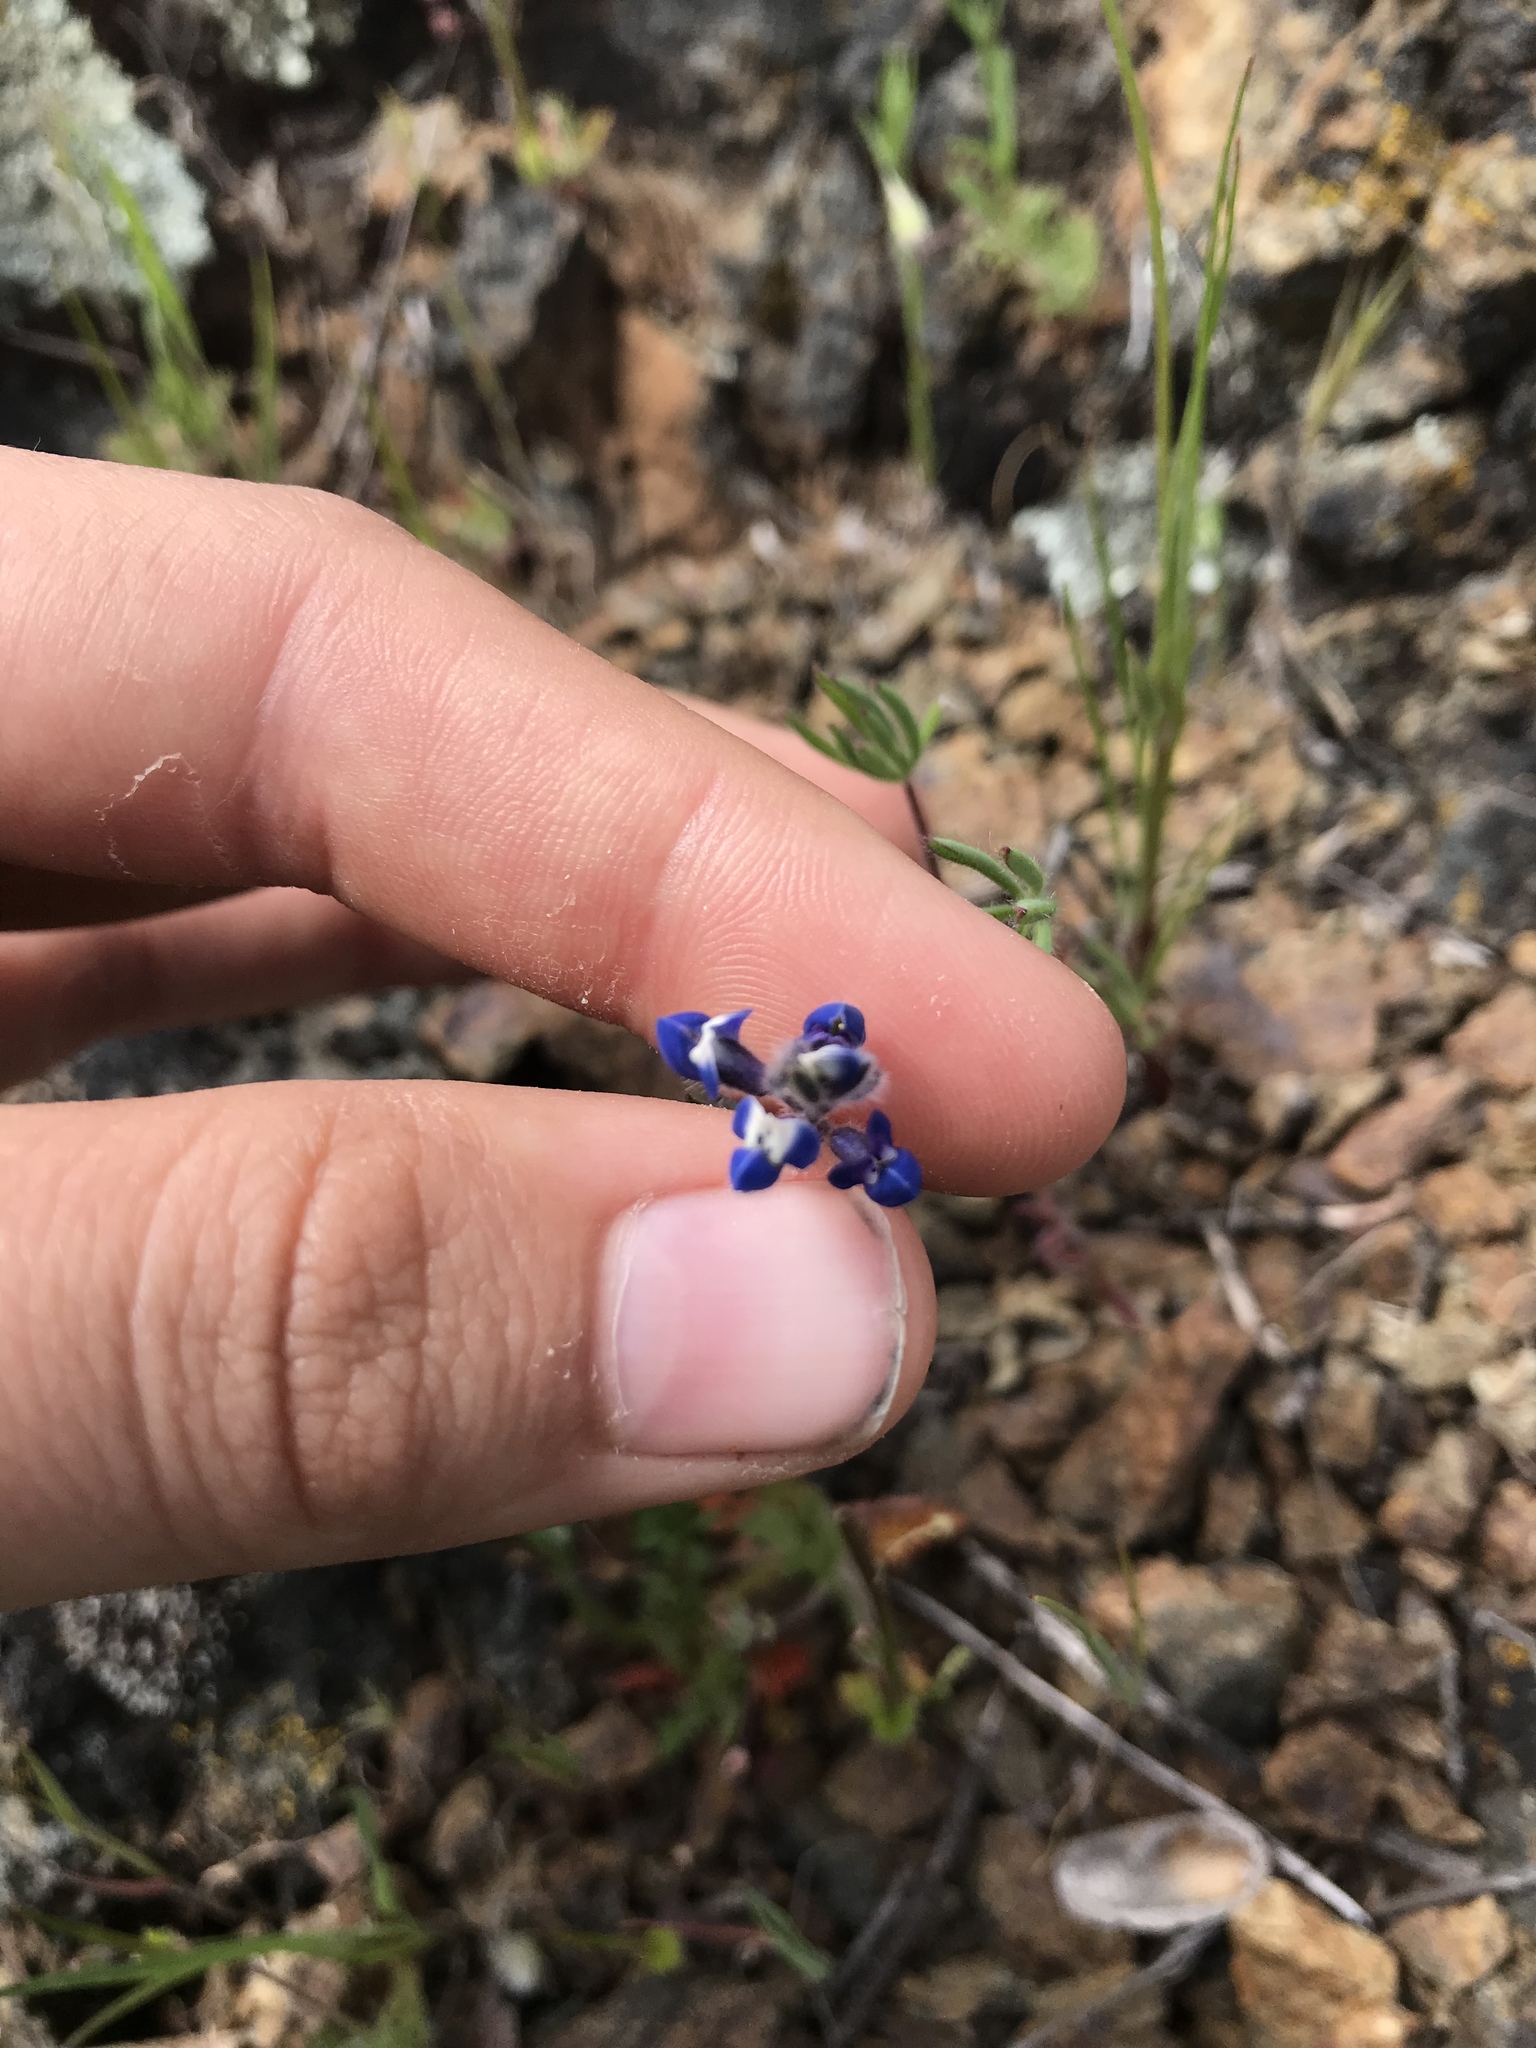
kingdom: Plantae
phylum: Tracheophyta
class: Magnoliopsida
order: Fabales
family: Fabaceae
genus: Lupinus
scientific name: Lupinus bicolor
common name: Miniature lupine
